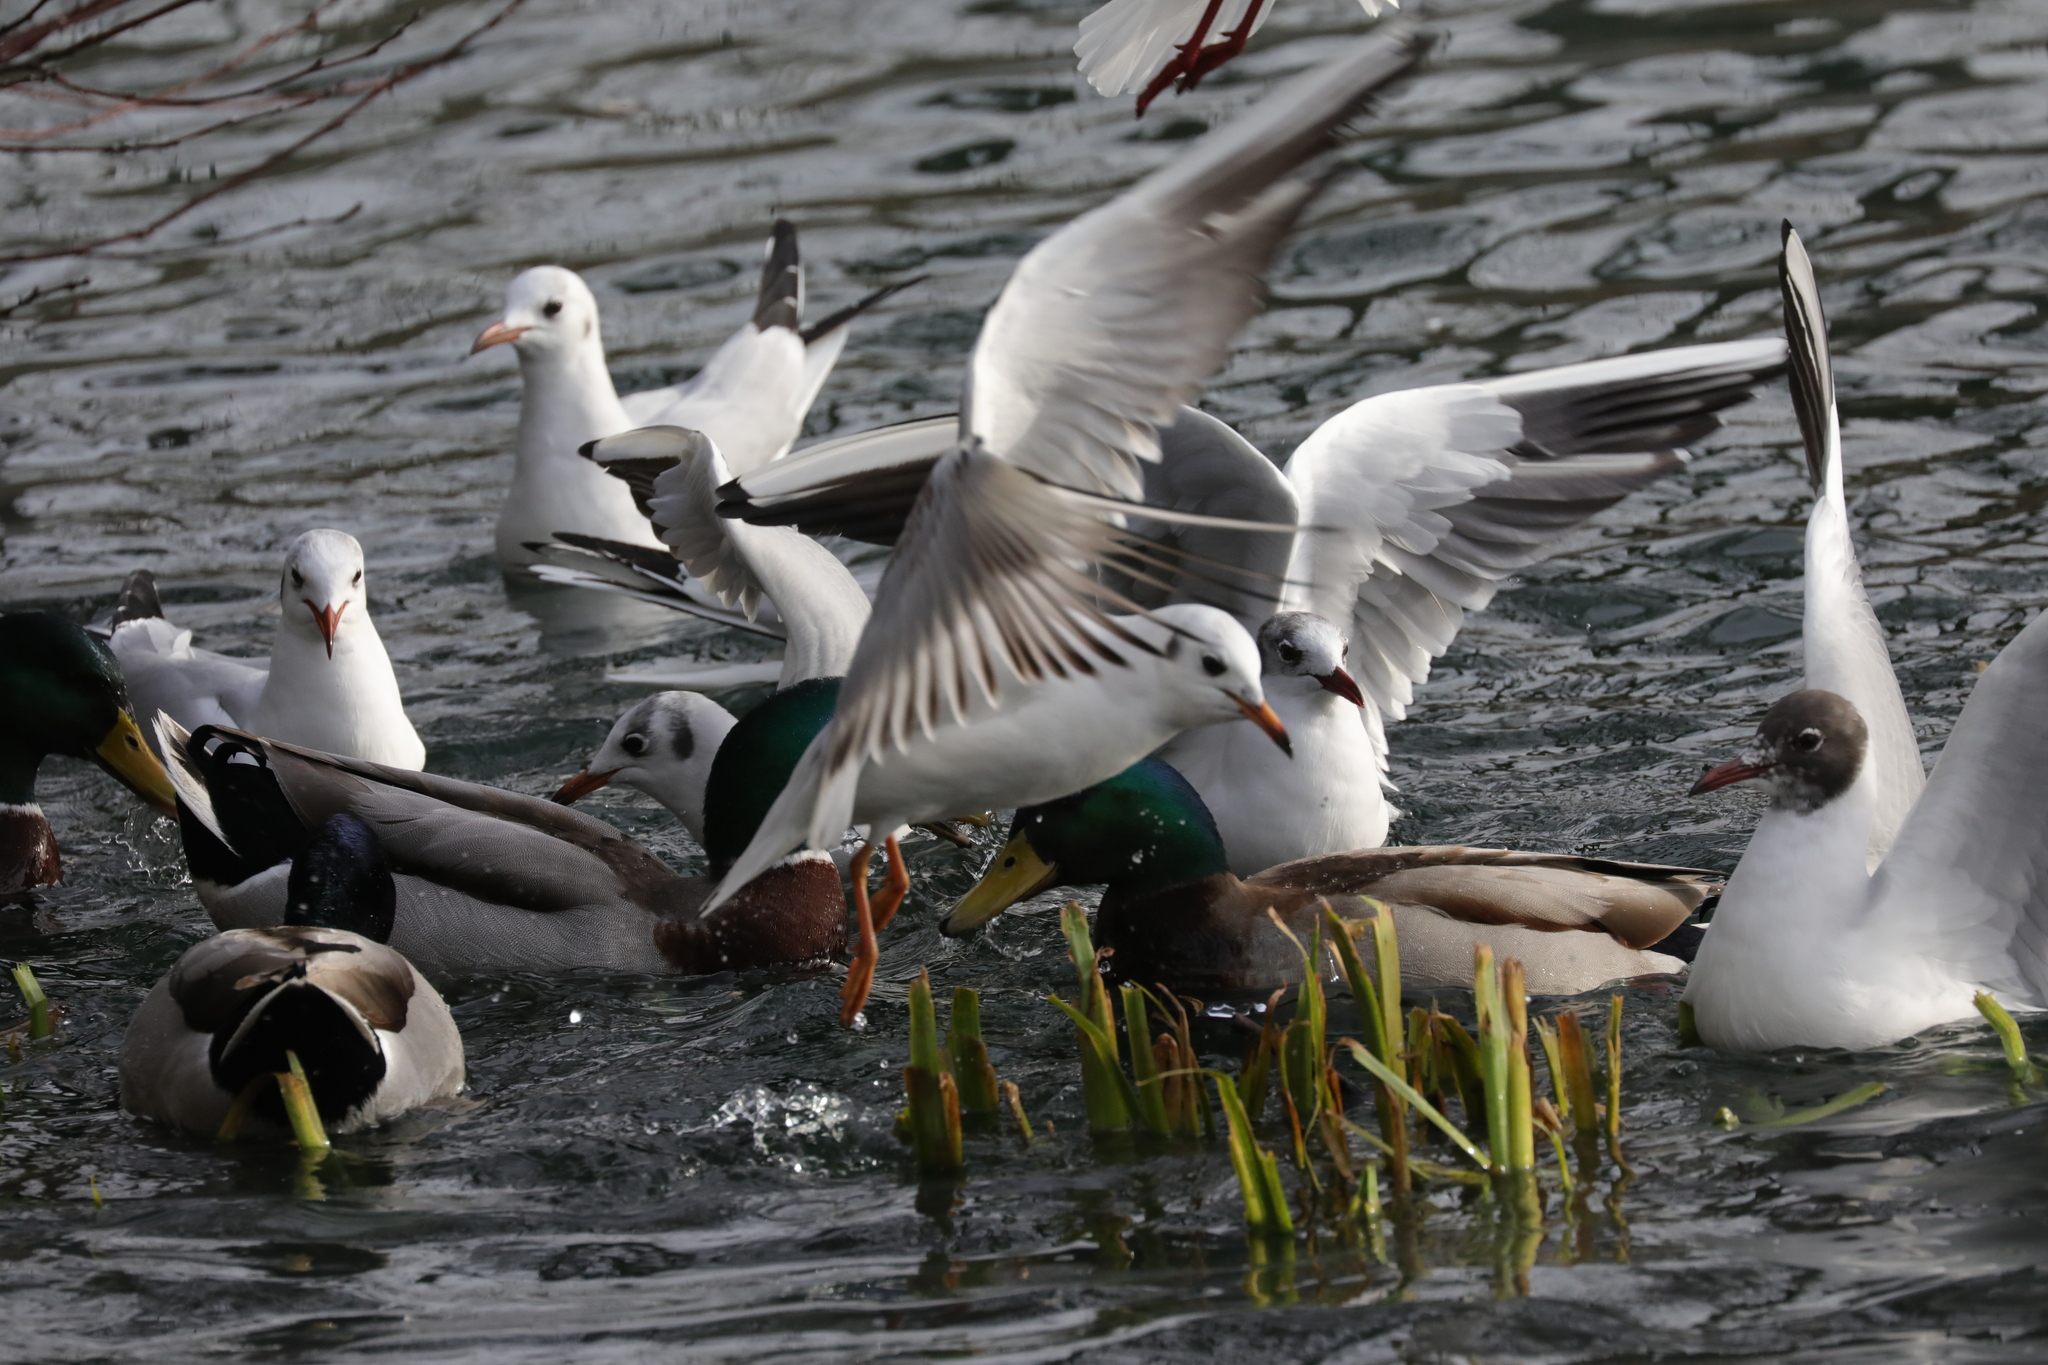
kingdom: Animalia
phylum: Chordata
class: Aves
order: Charadriiformes
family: Laridae
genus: Chroicocephalus
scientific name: Chroicocephalus ridibundus
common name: Black-headed gull
